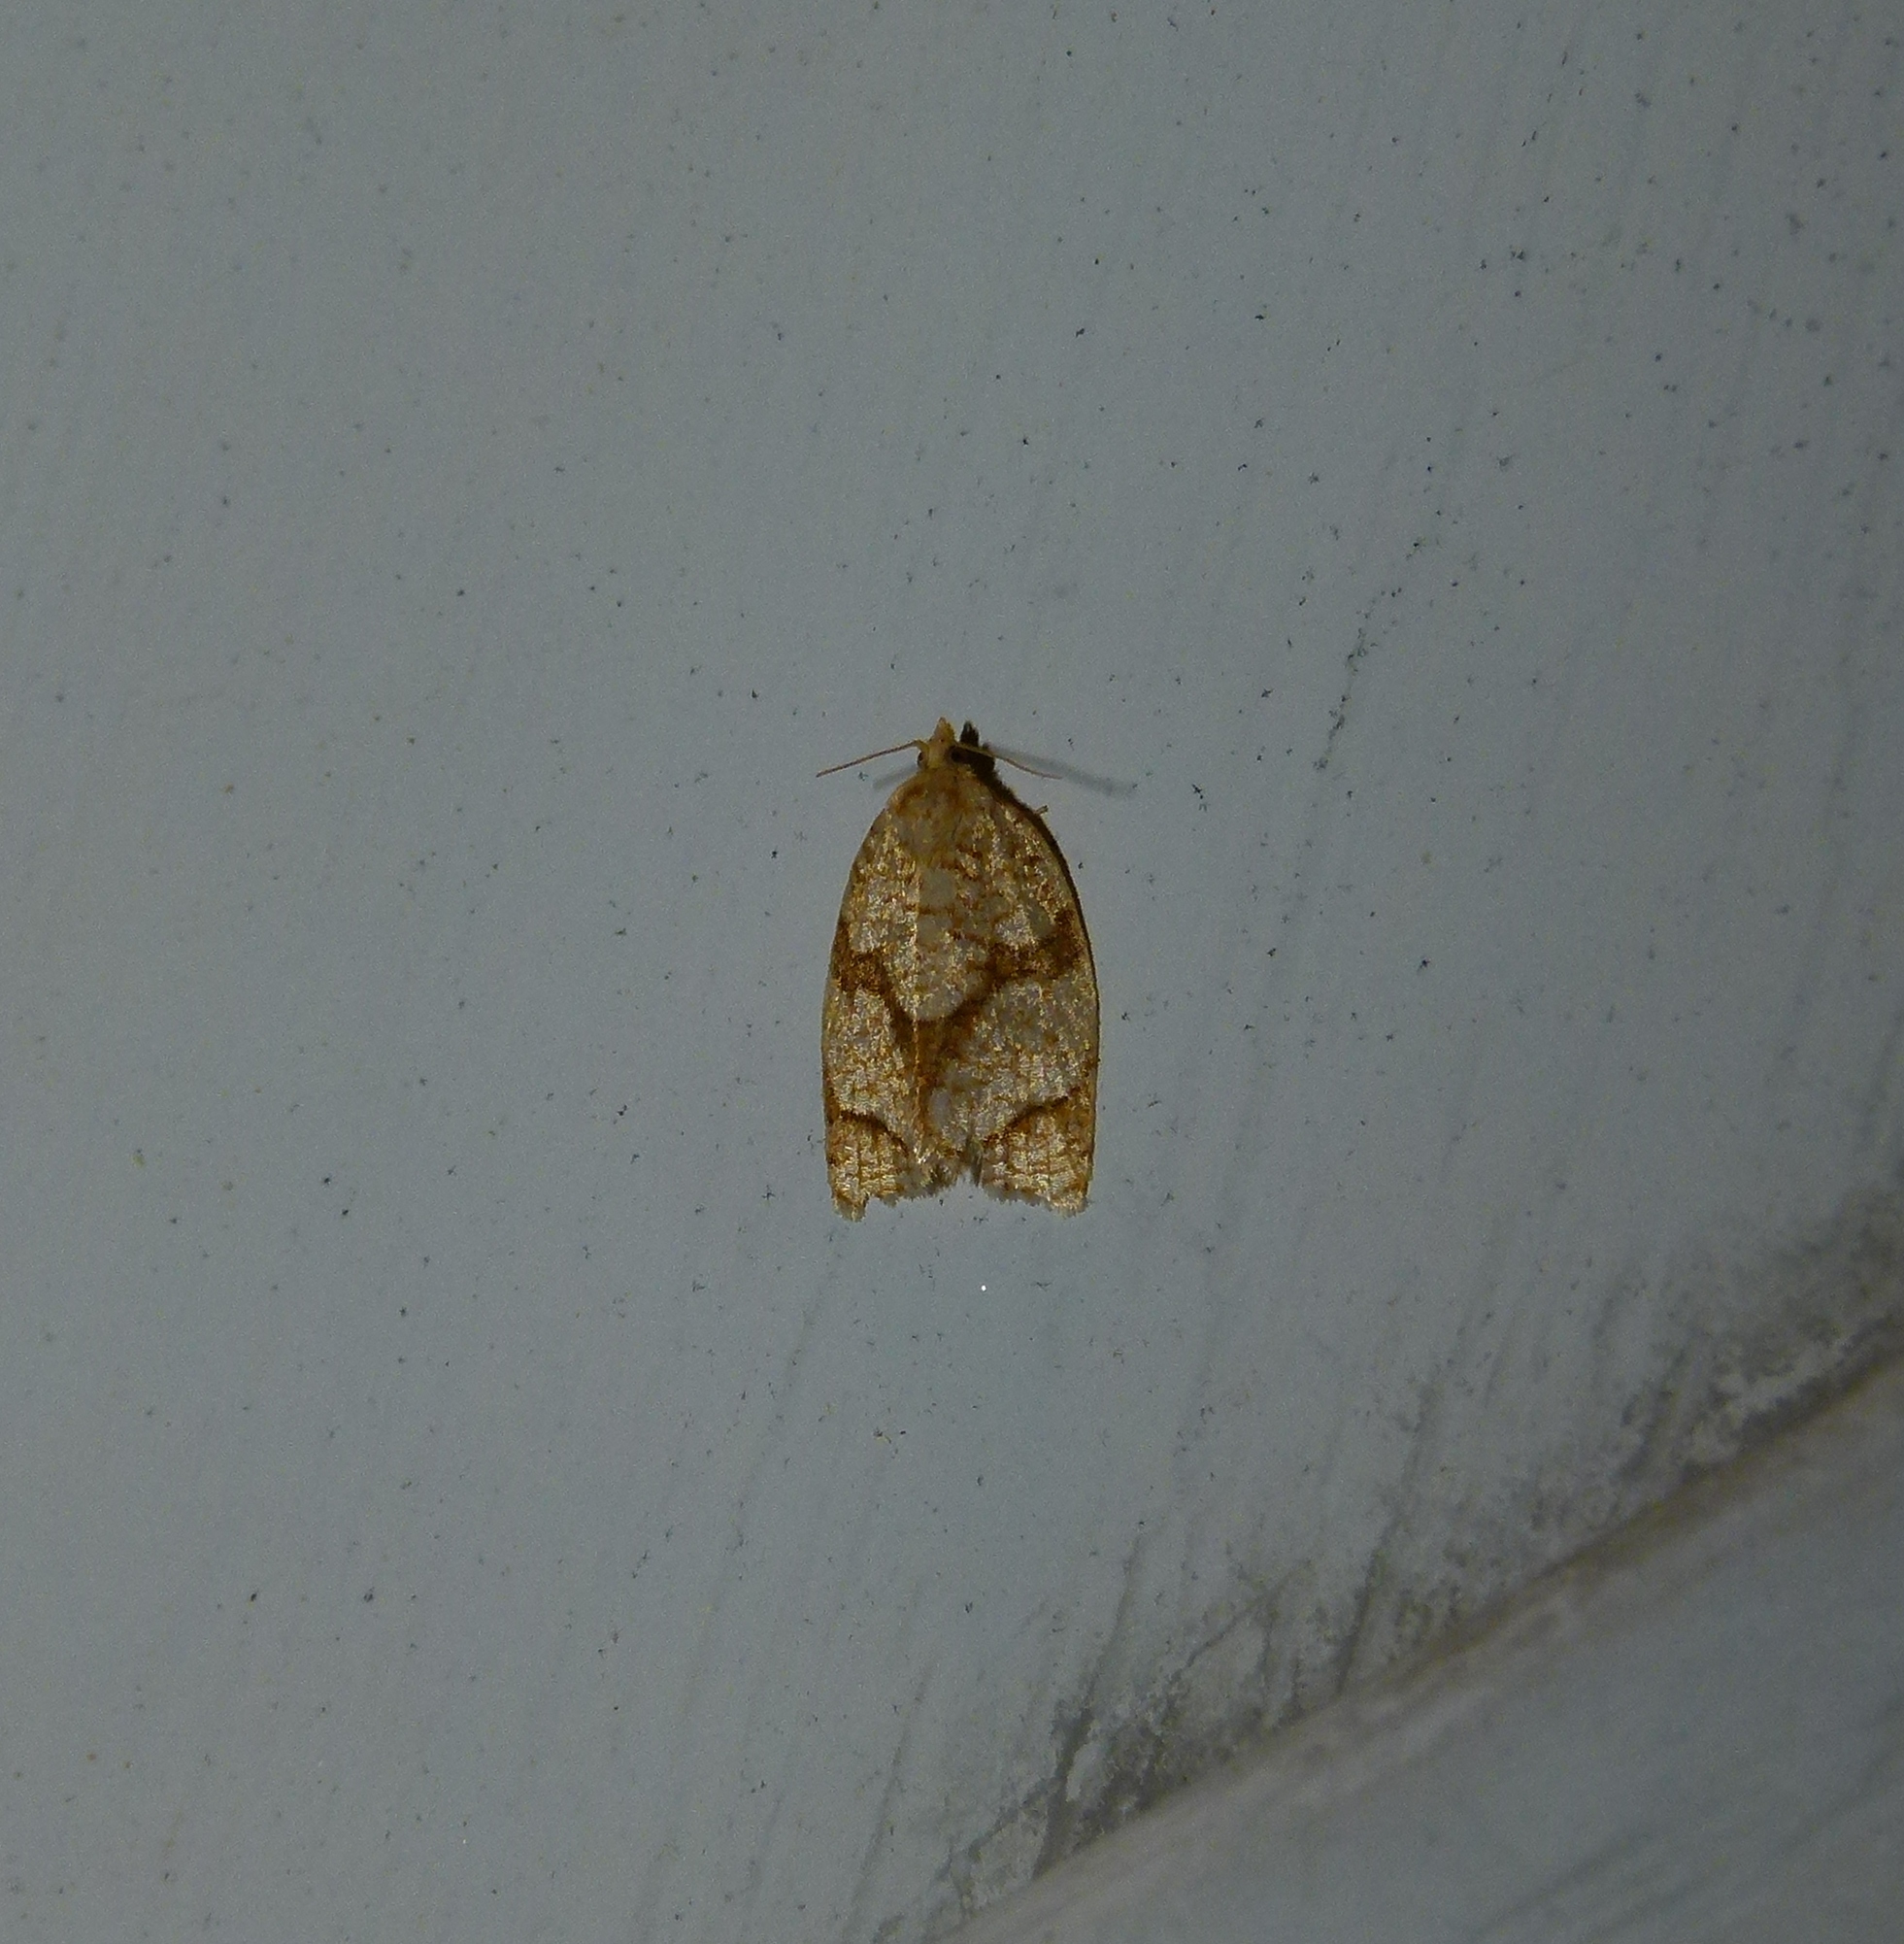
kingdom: Animalia
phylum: Arthropoda
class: Insecta
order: Lepidoptera
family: Tortricidae
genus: Adoxophyes
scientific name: Adoxophyes negundana
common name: Shimmering gold adoxophyes moth
